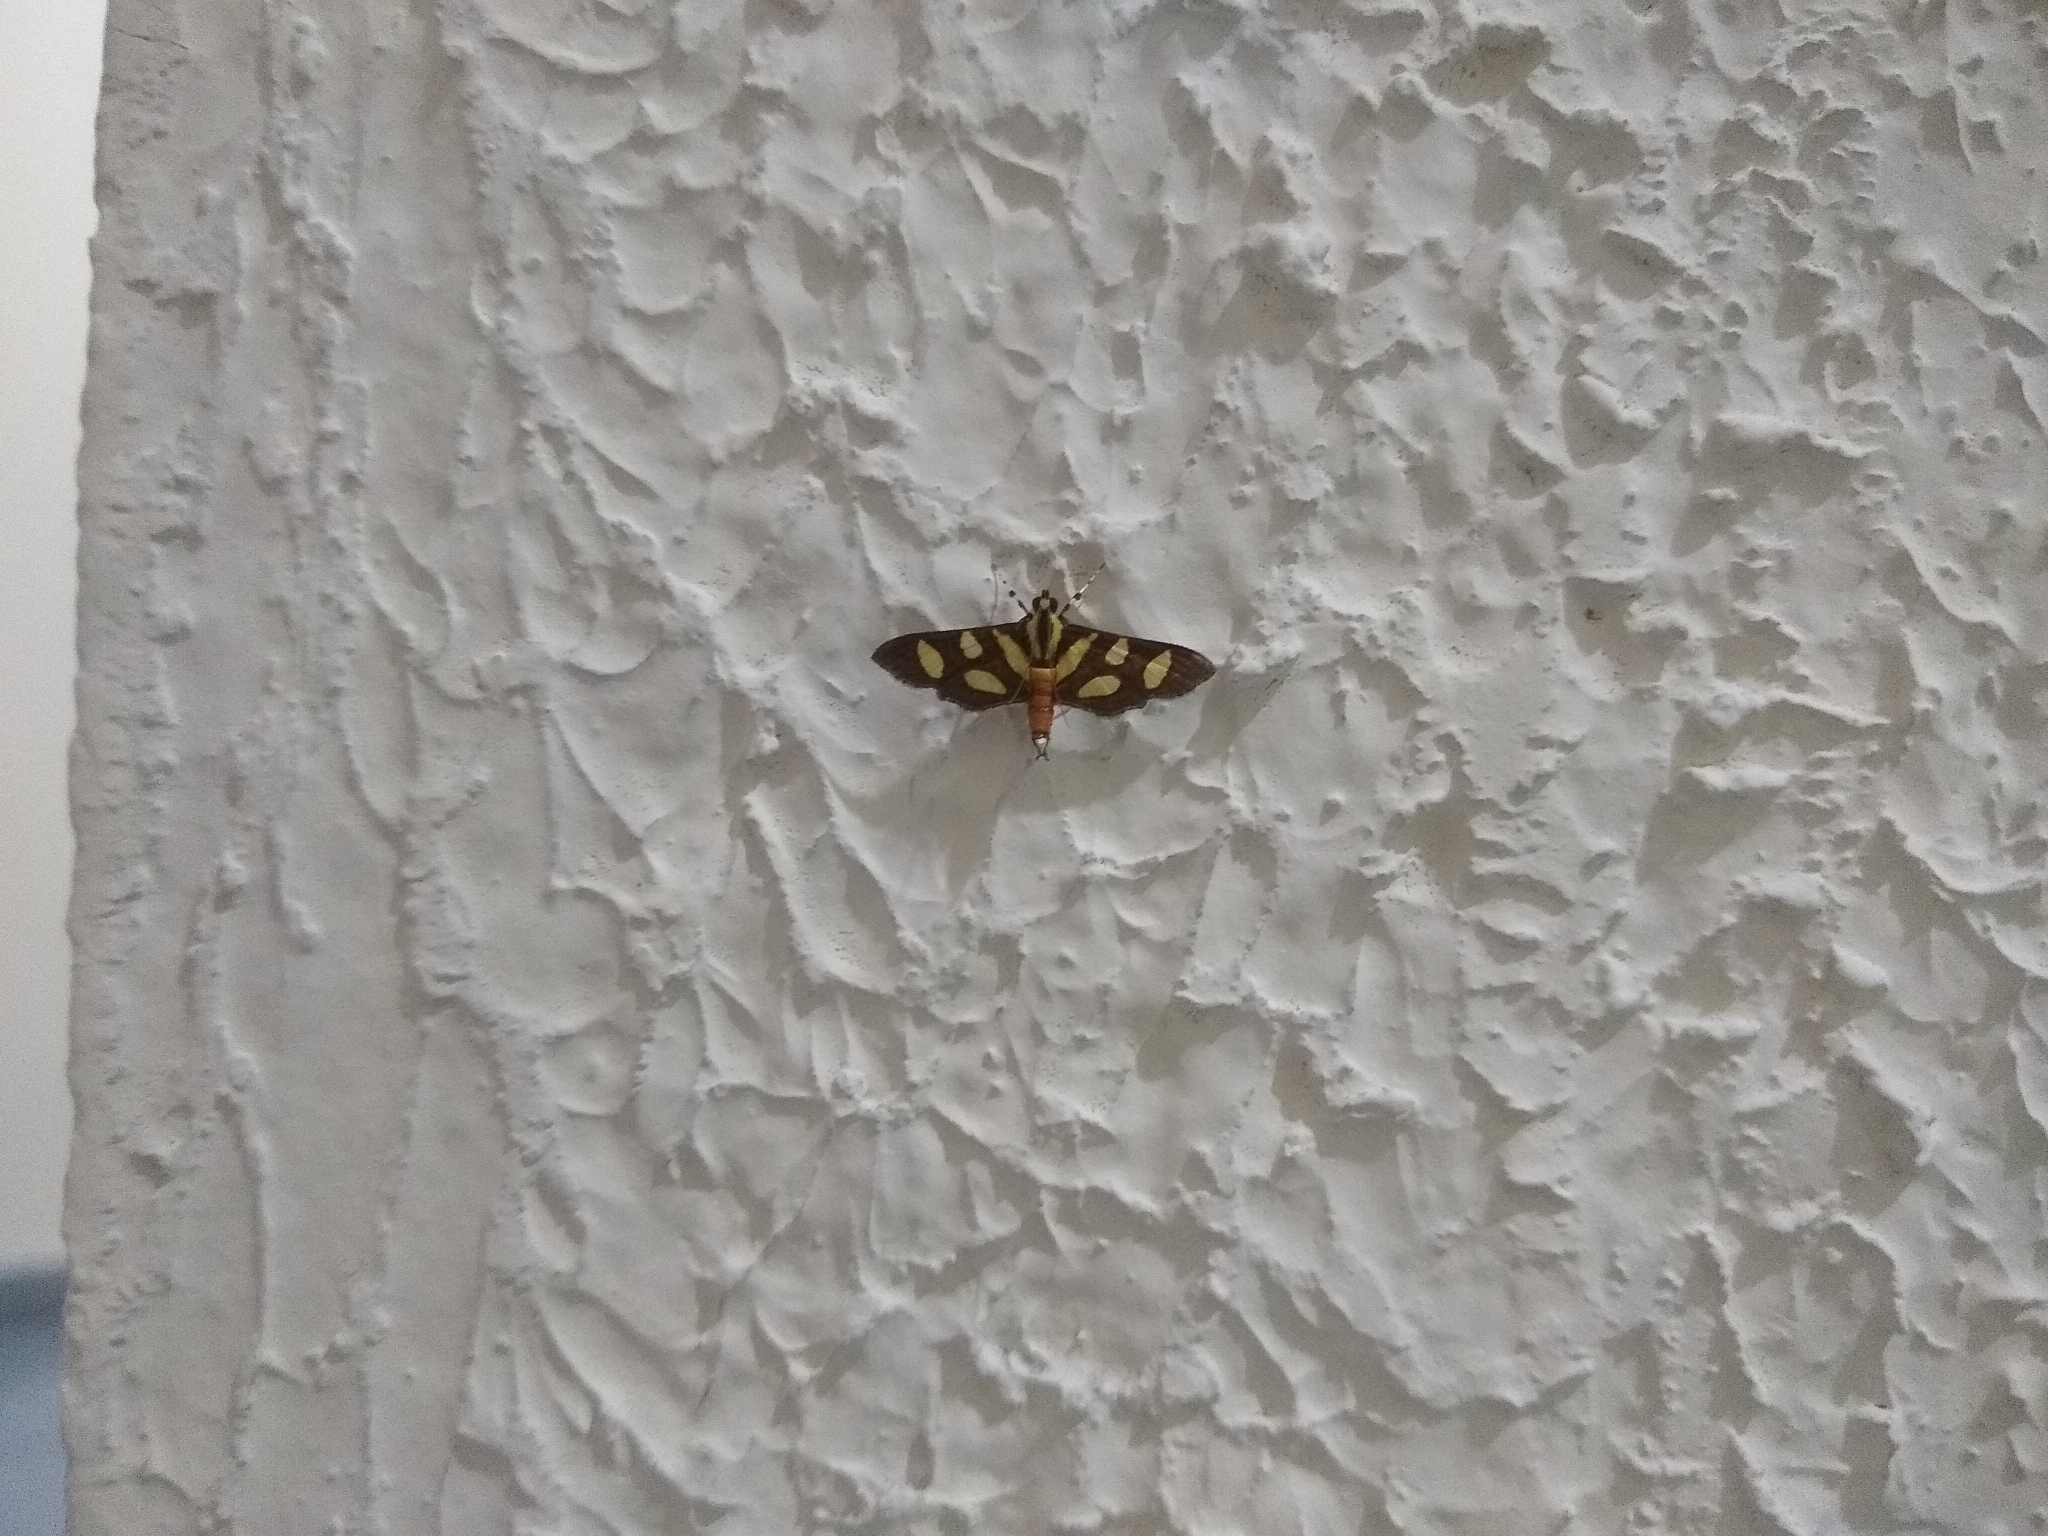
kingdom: Animalia
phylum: Arthropoda
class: Insecta
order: Lepidoptera
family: Crambidae
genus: Syngamia
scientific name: Syngamia florella
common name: Orange-spotted flower moth
